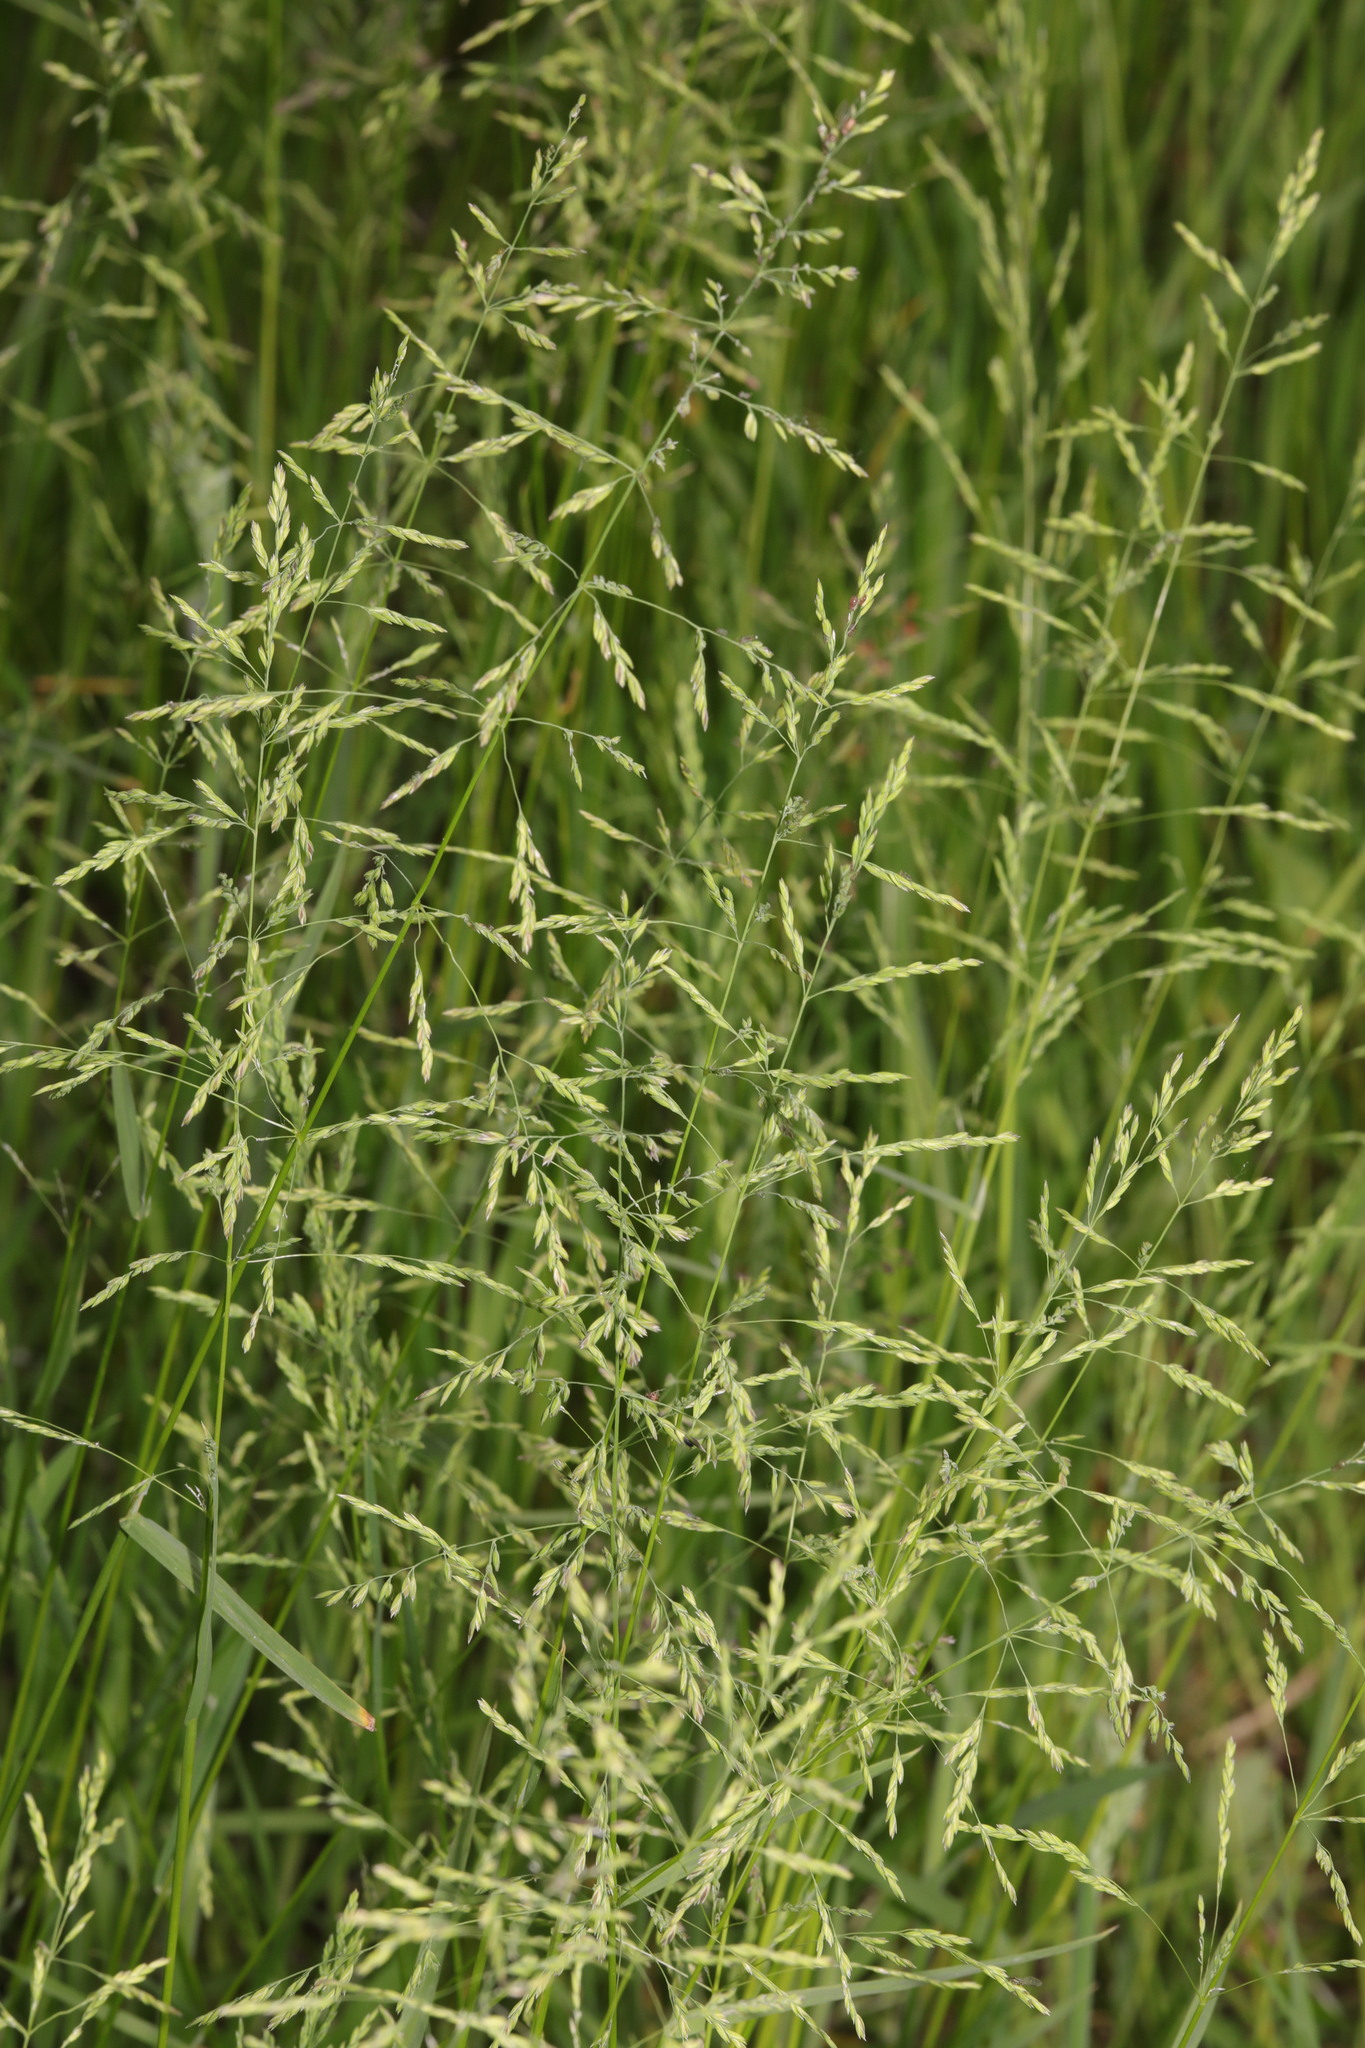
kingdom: Plantae
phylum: Tracheophyta
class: Liliopsida
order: Poales
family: Poaceae
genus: Poa
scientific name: Poa trivialis
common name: Rough bluegrass
